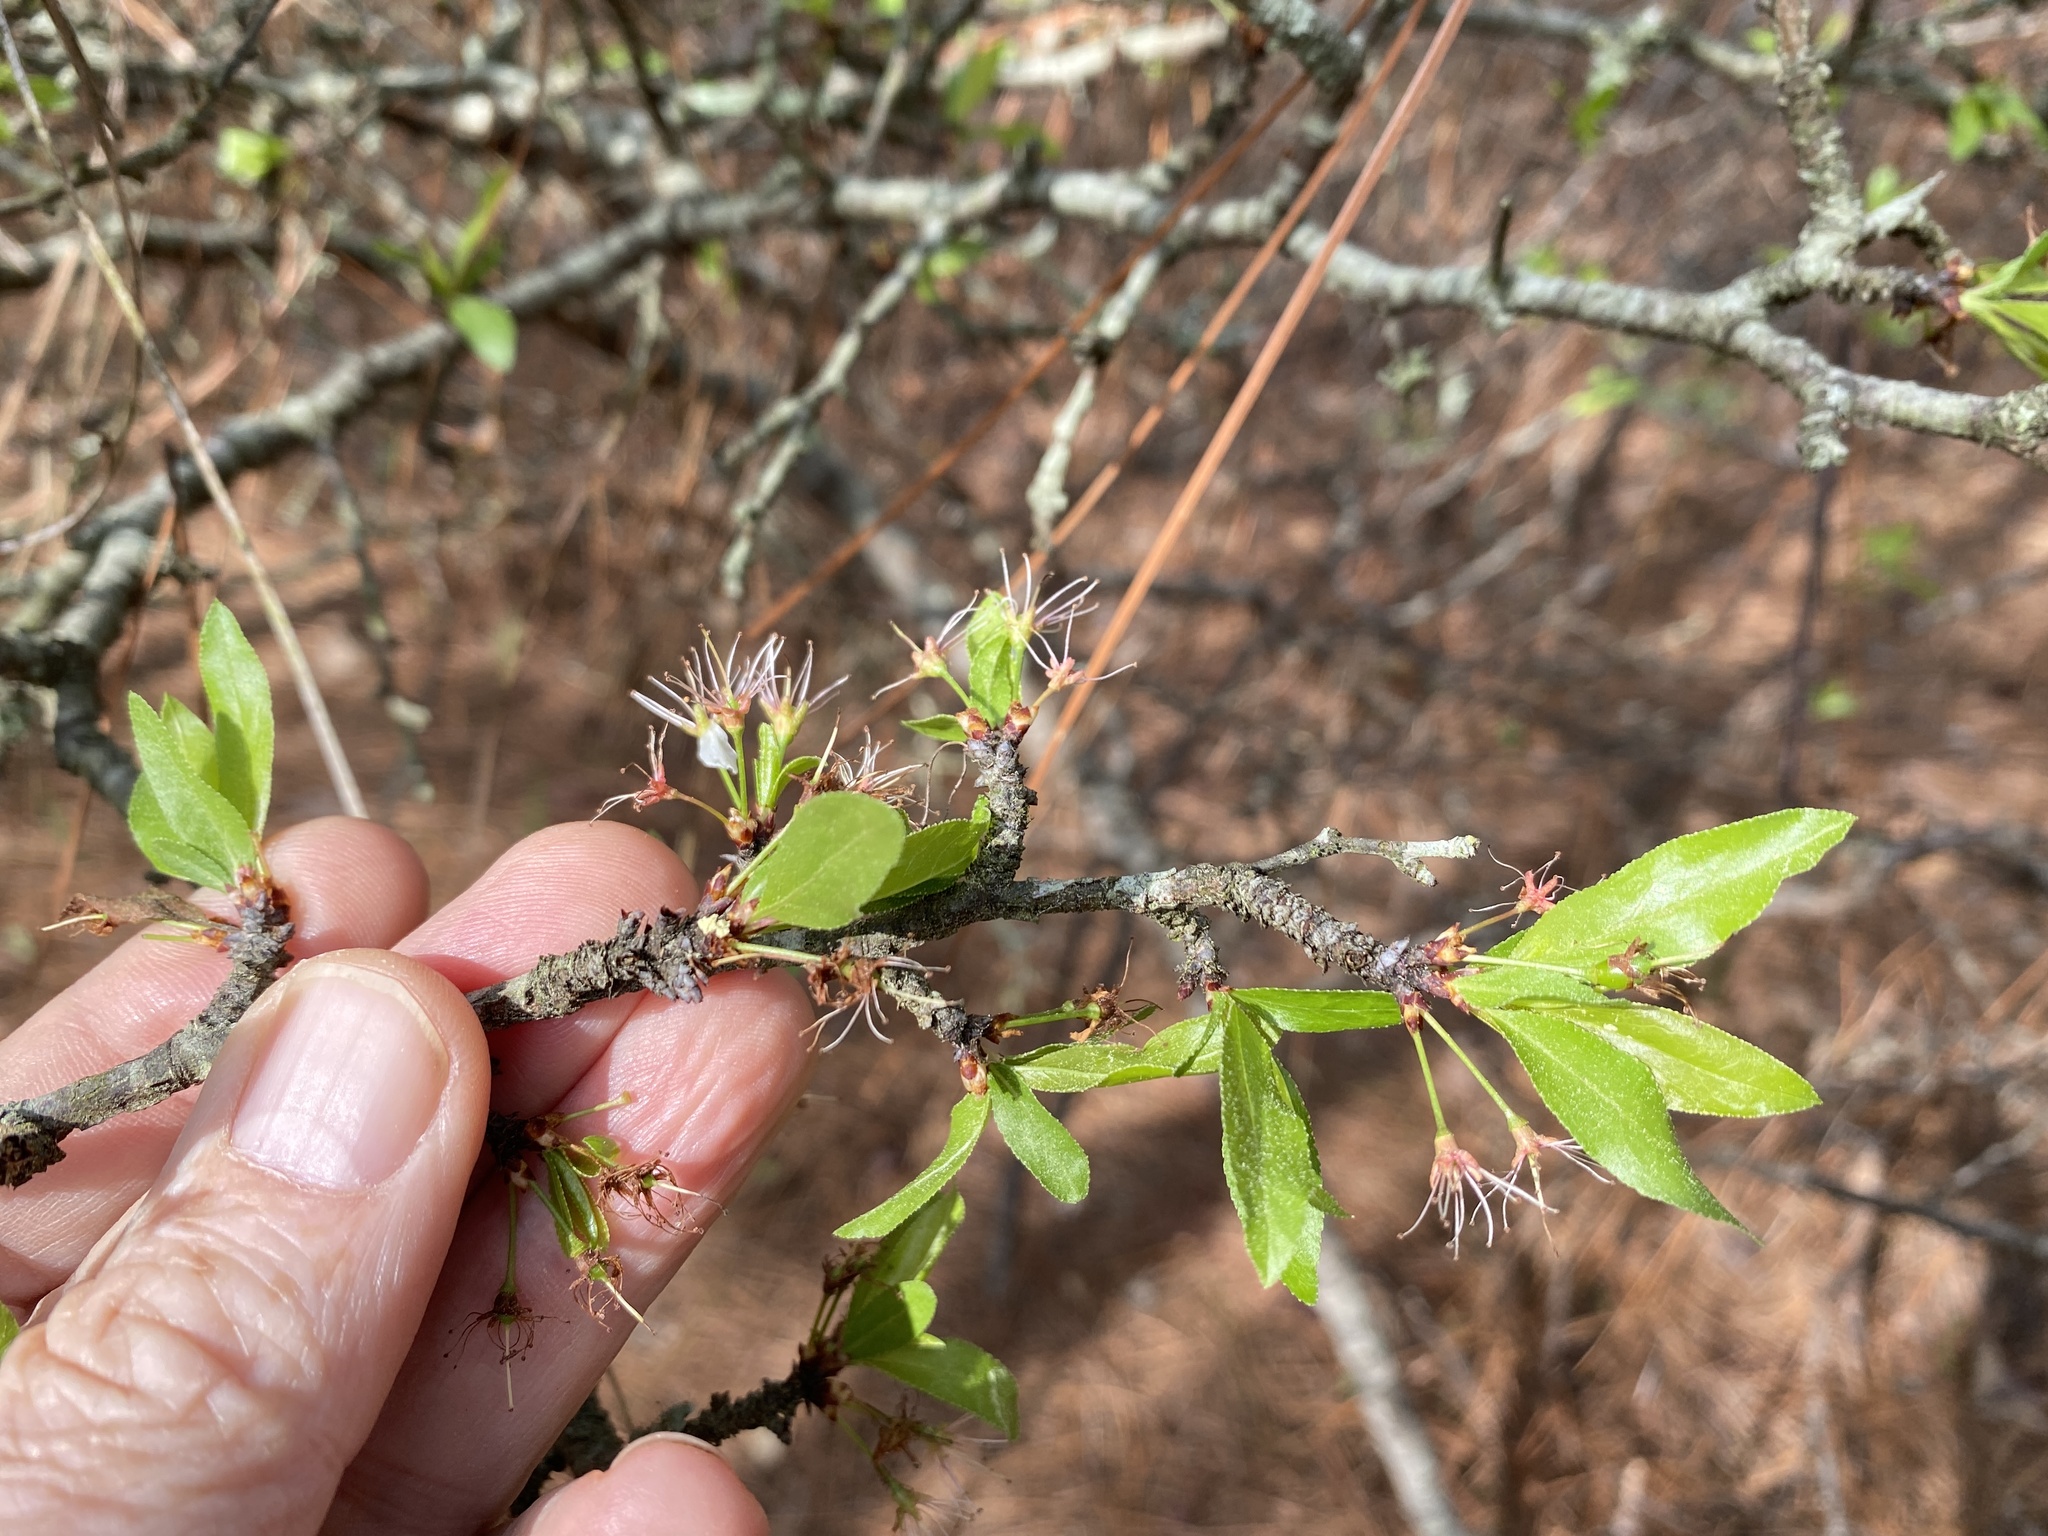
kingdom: Plantae
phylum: Tracheophyta
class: Magnoliopsida
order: Rosales
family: Rosaceae
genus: Prunus
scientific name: Prunus angustifolia
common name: Cherokee plum
